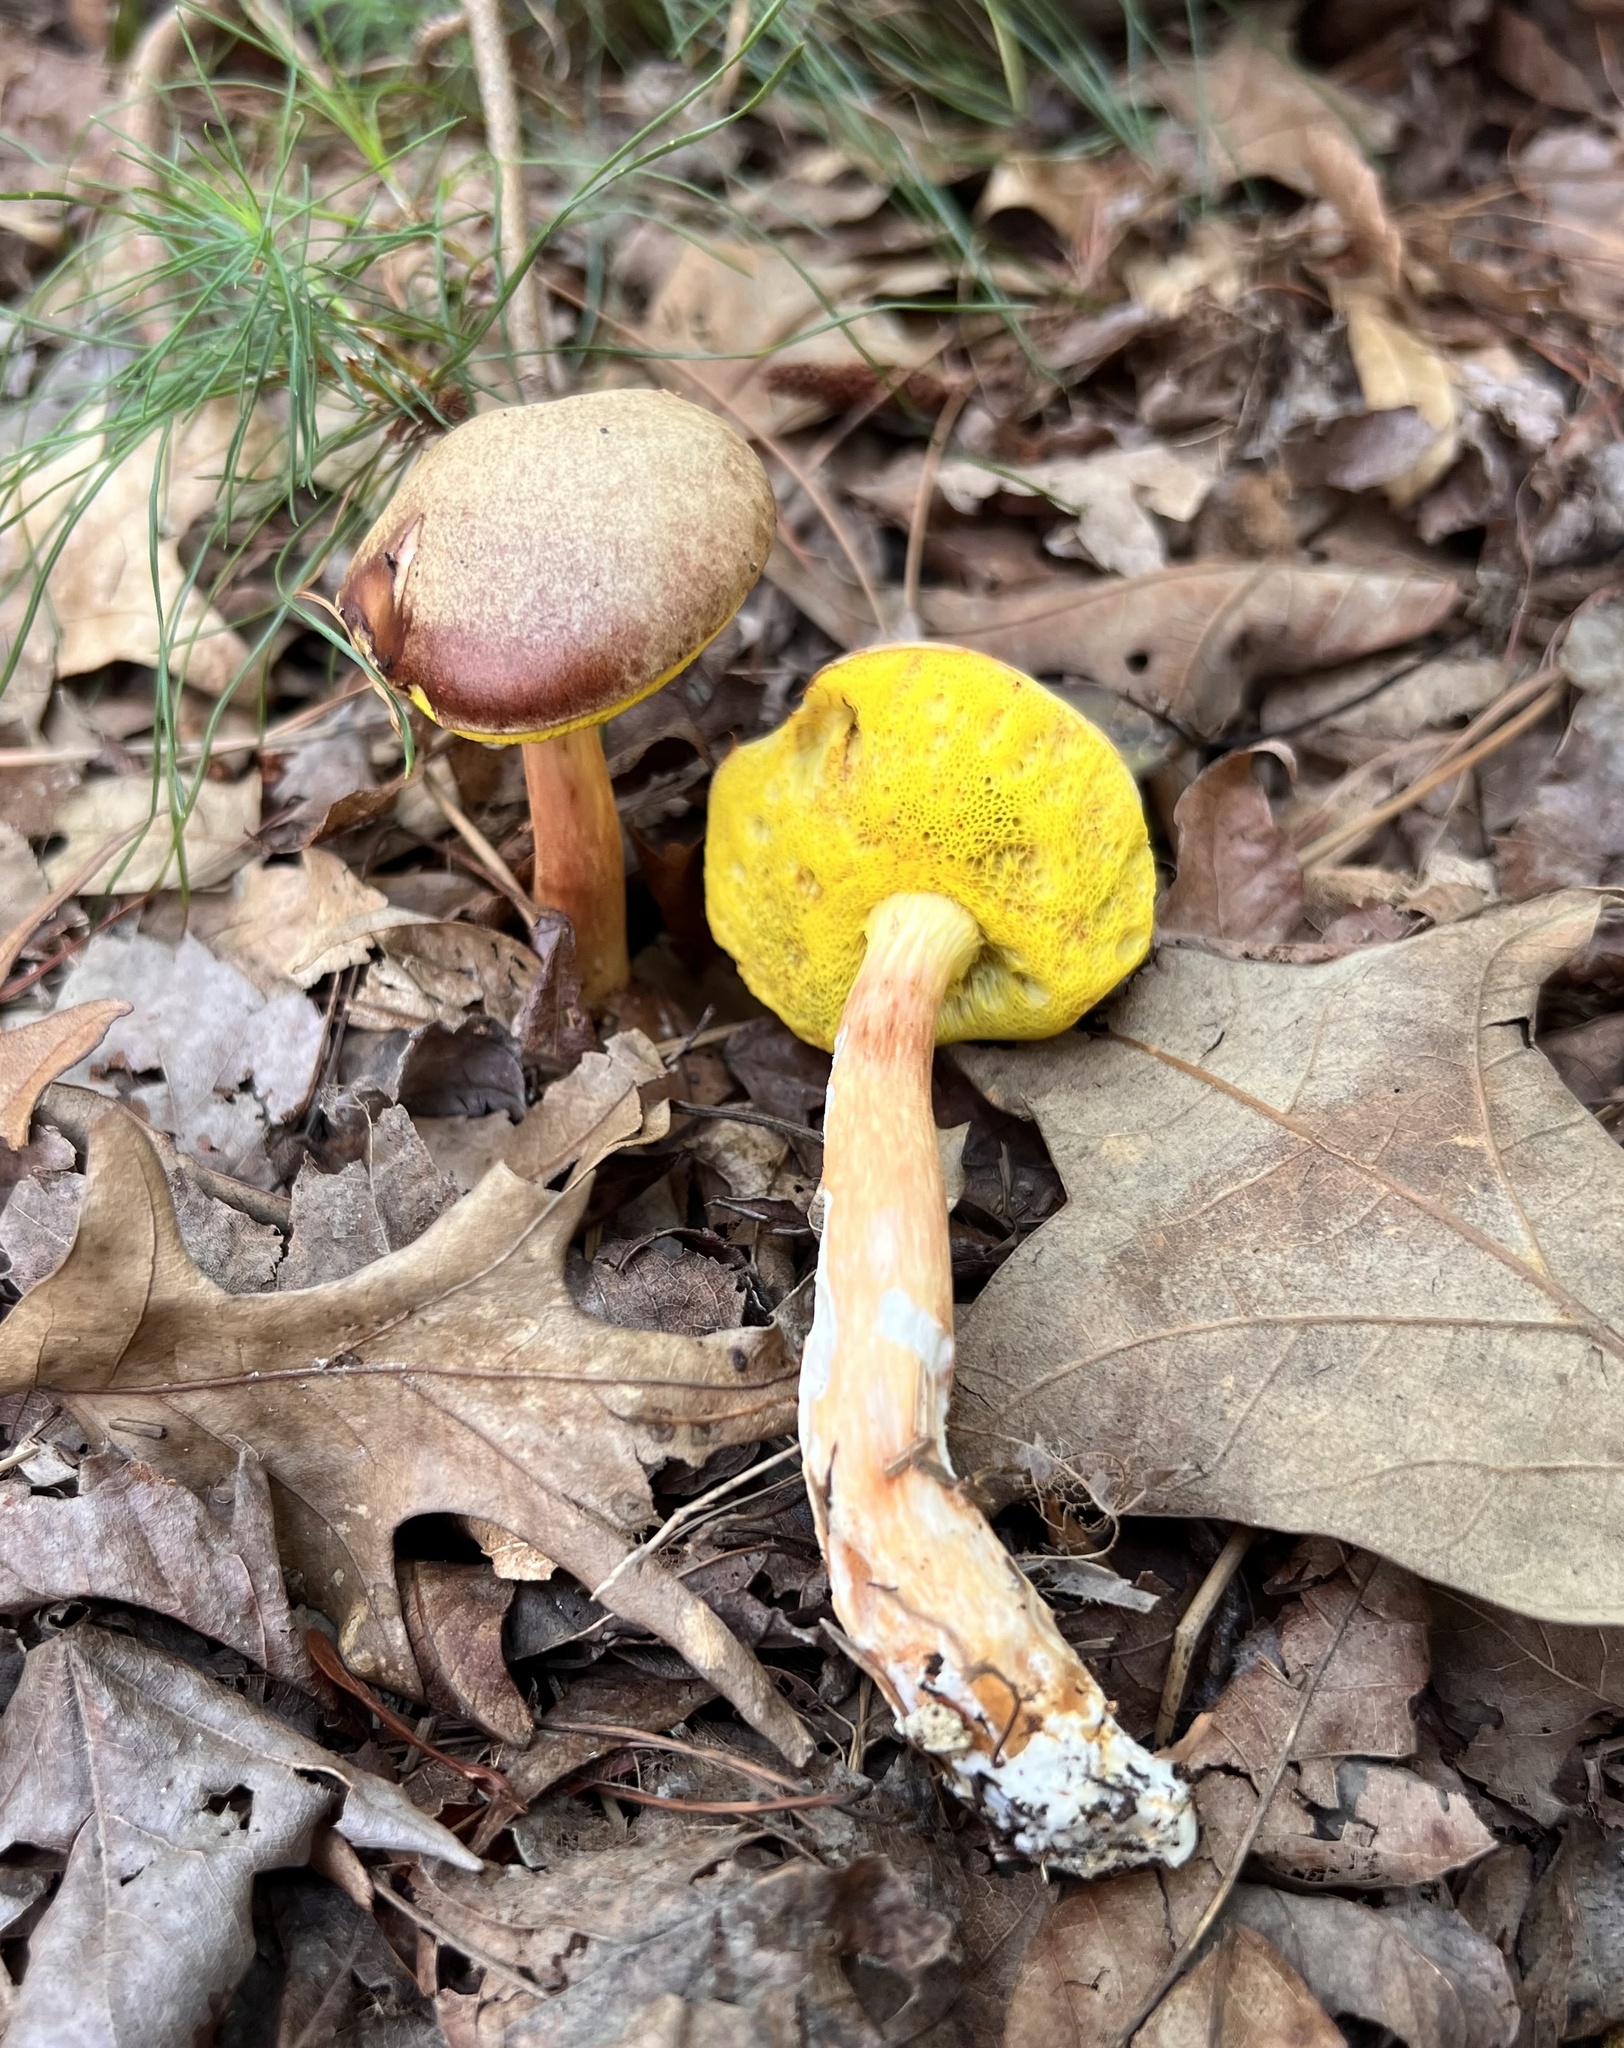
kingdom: Fungi
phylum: Basidiomycota
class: Agaricomycetes
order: Boletales
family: Boletaceae
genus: Aureoboletus
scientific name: Aureoboletus auriporus
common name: Sour gold-pored bolete
